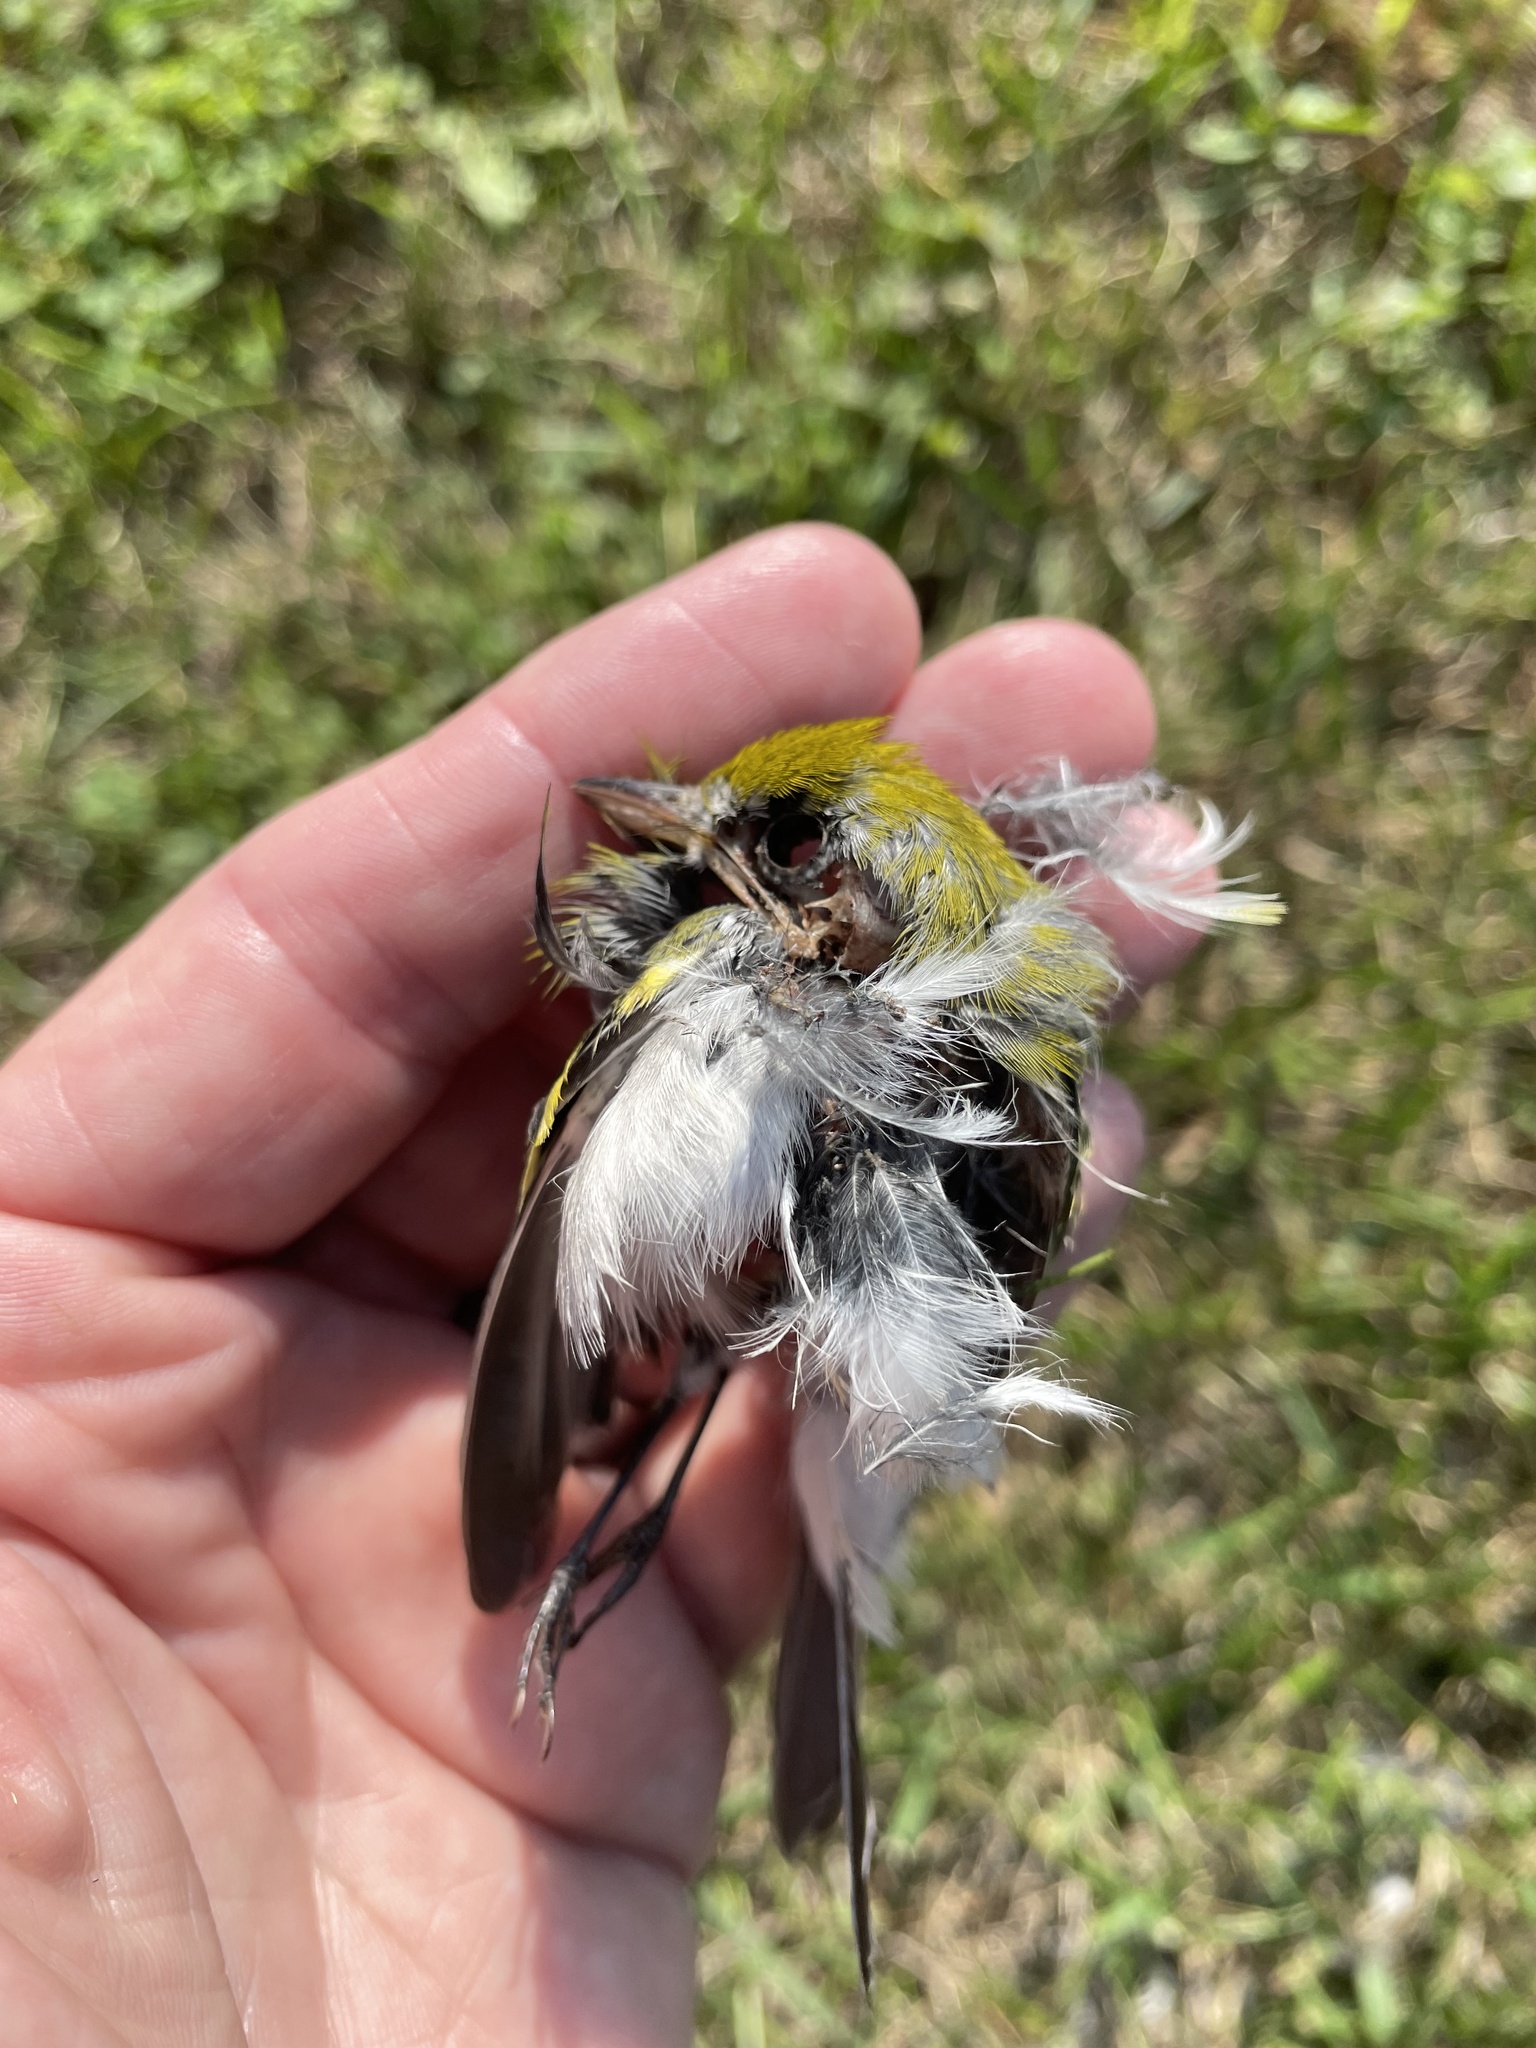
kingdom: Animalia
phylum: Chordata
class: Aves
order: Passeriformes
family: Parulidae
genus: Setophaga
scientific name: Setophaga pensylvanica
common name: Chestnut-sided warbler
